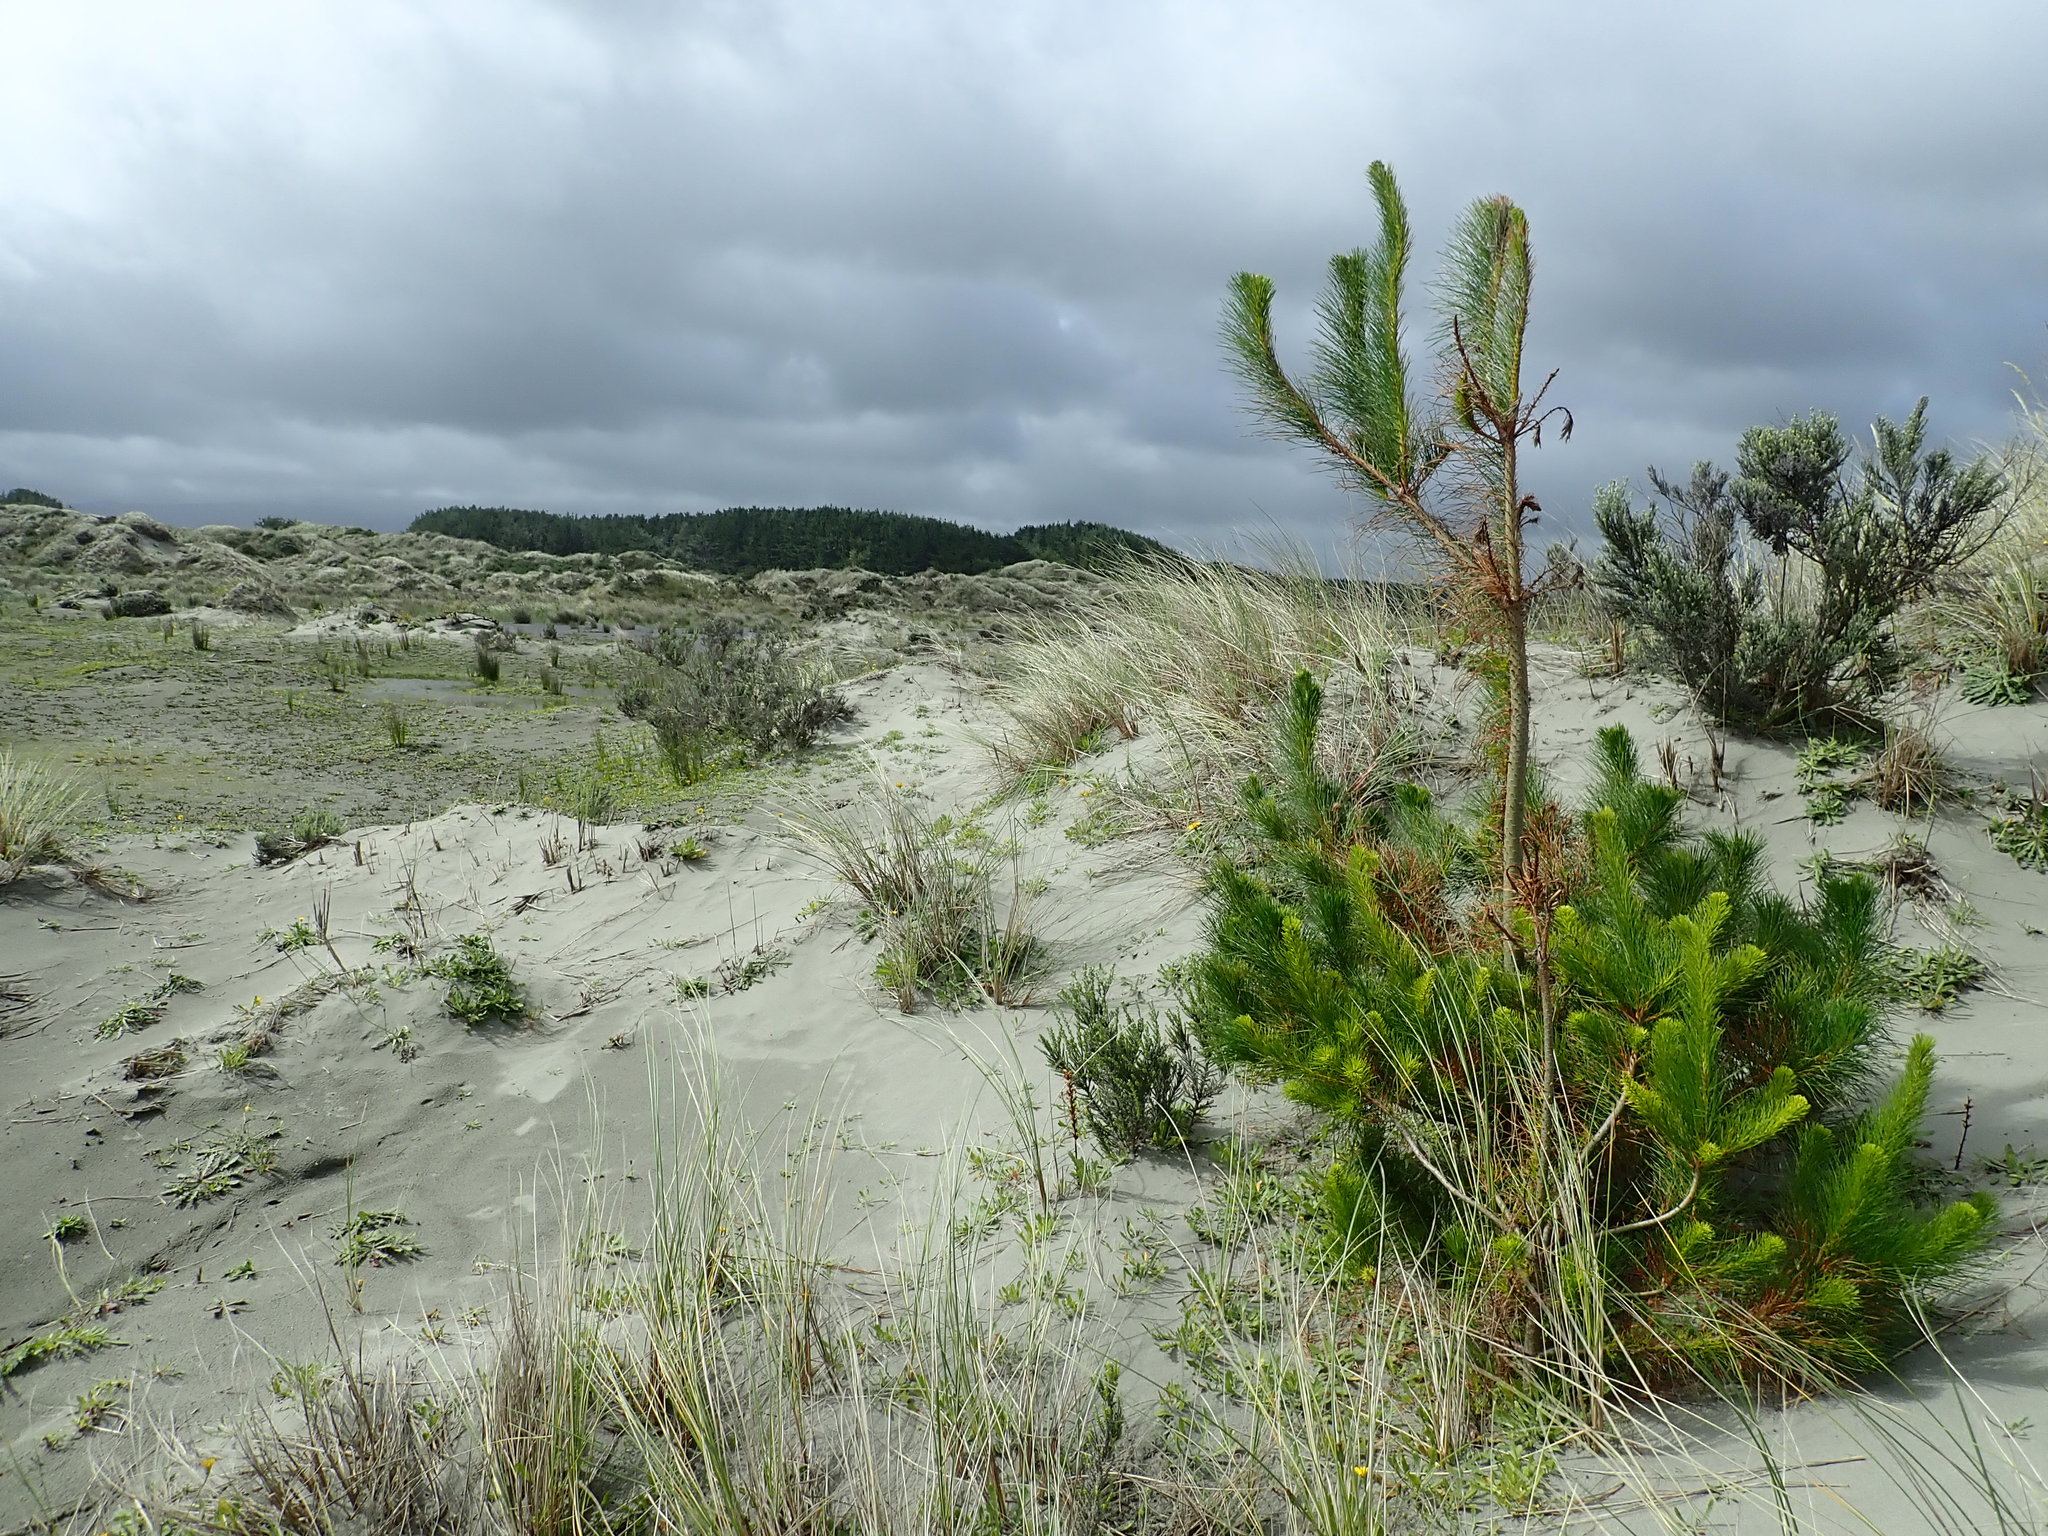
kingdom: Plantae
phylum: Tracheophyta
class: Pinopsida
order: Pinales
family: Pinaceae
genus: Pinus
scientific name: Pinus radiata
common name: Monterey pine
